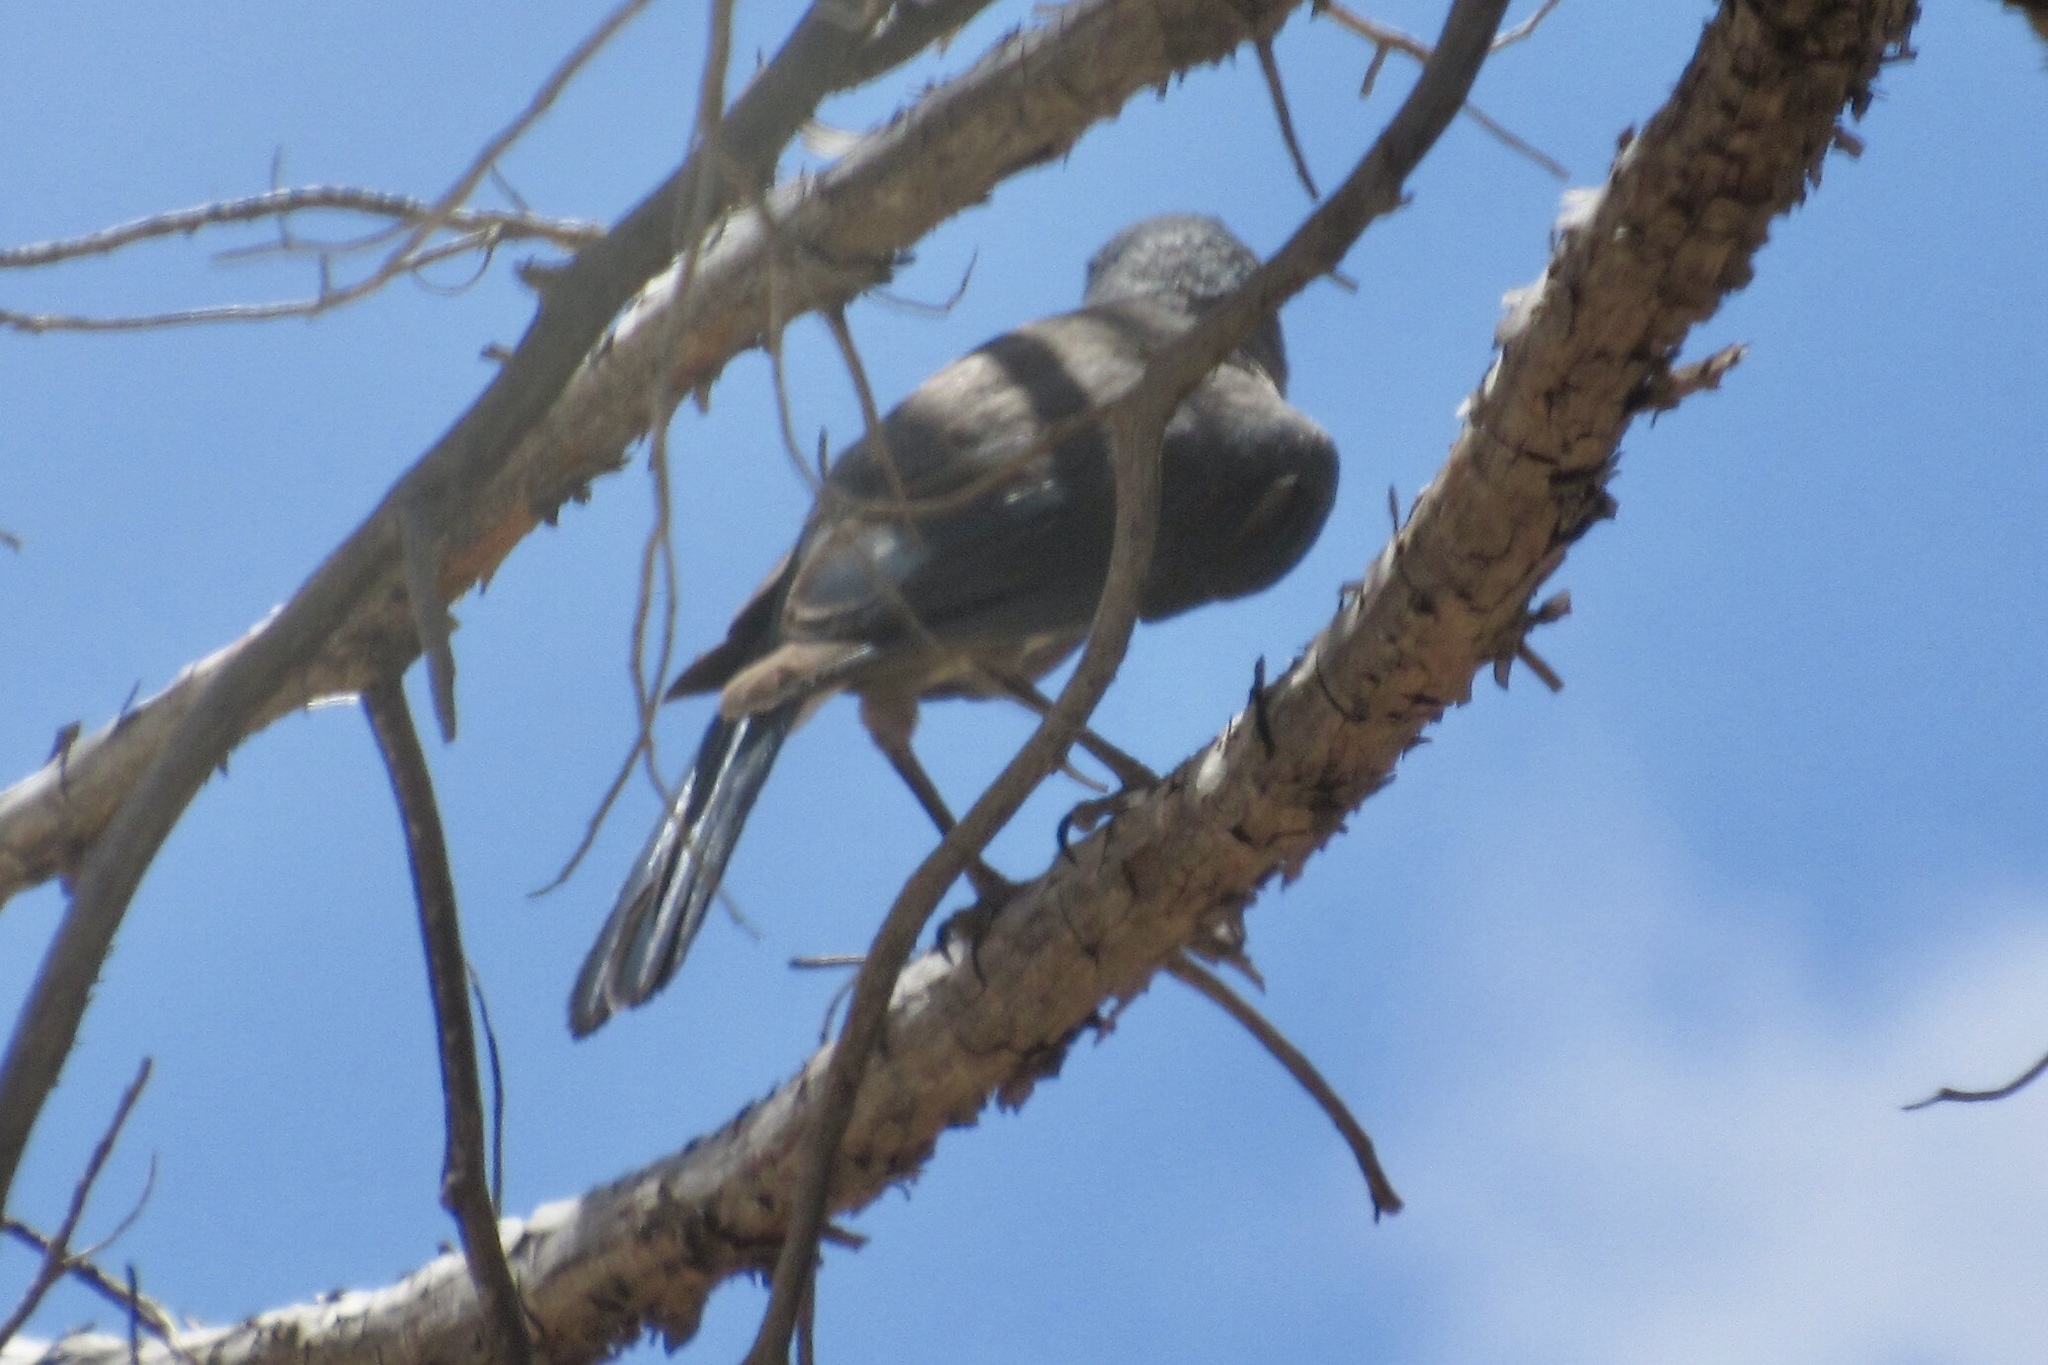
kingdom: Animalia
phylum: Chordata
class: Aves
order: Passeriformes
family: Corvidae
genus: Aphelocoma
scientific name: Aphelocoma wollweberi
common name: Mexican jay
